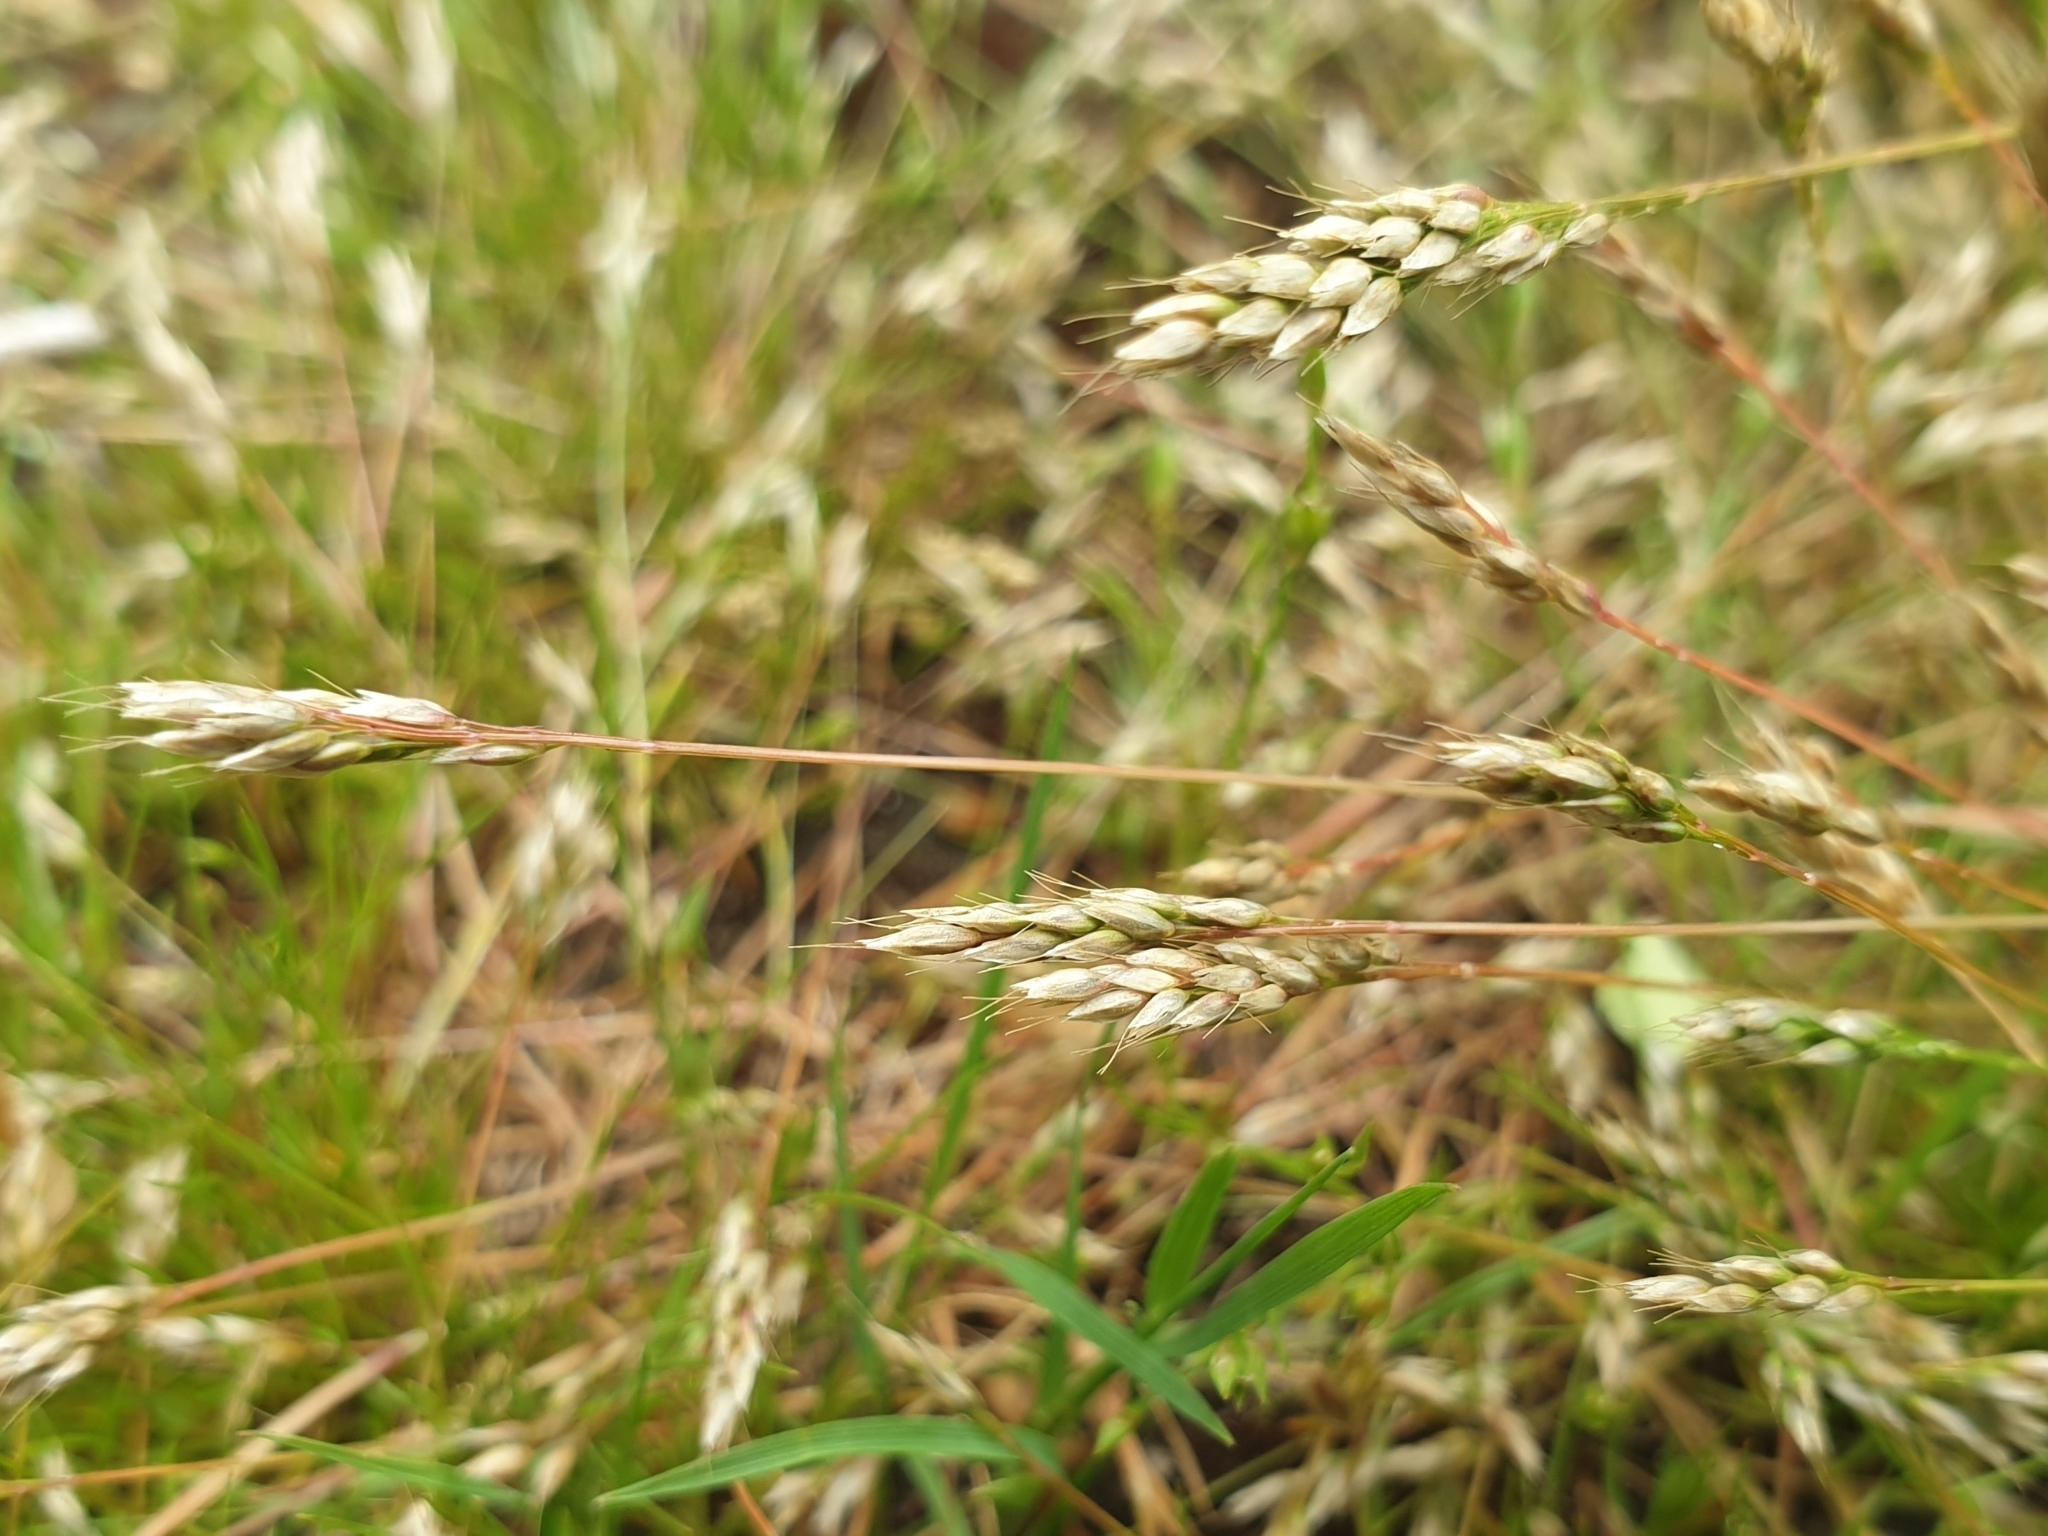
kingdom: Plantae
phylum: Tracheophyta
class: Liliopsida
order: Poales
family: Poaceae
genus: Aira
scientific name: Aira praecox
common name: Early hair-grass
